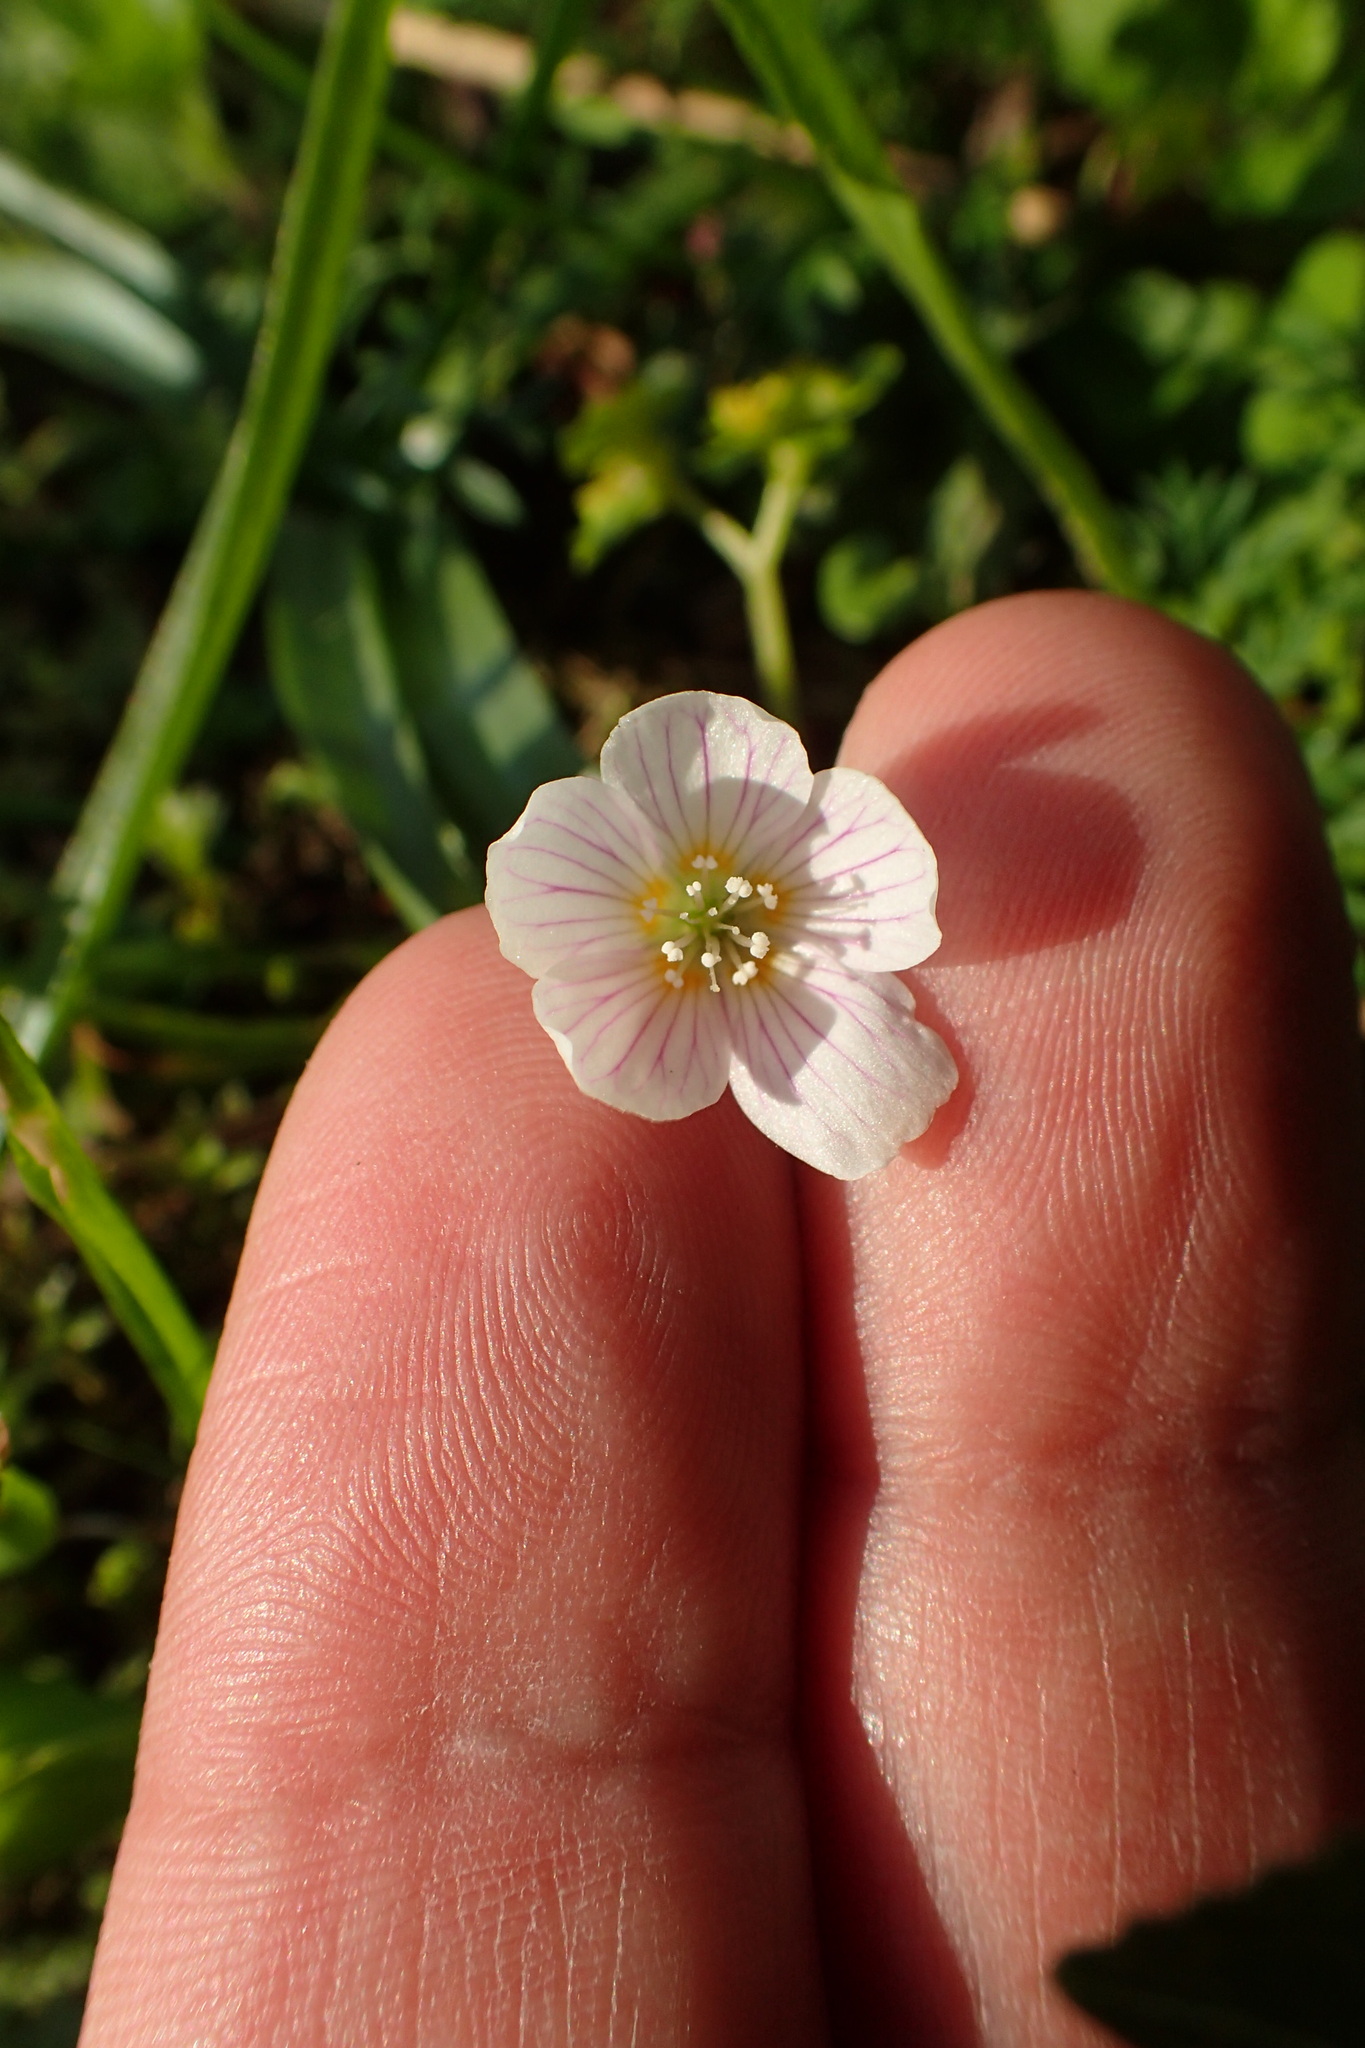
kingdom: Plantae
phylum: Tracheophyta
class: Magnoliopsida
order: Oxalidales
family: Oxalidaceae
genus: Oxalis
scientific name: Oxalis acetosella
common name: Wood-sorrel
